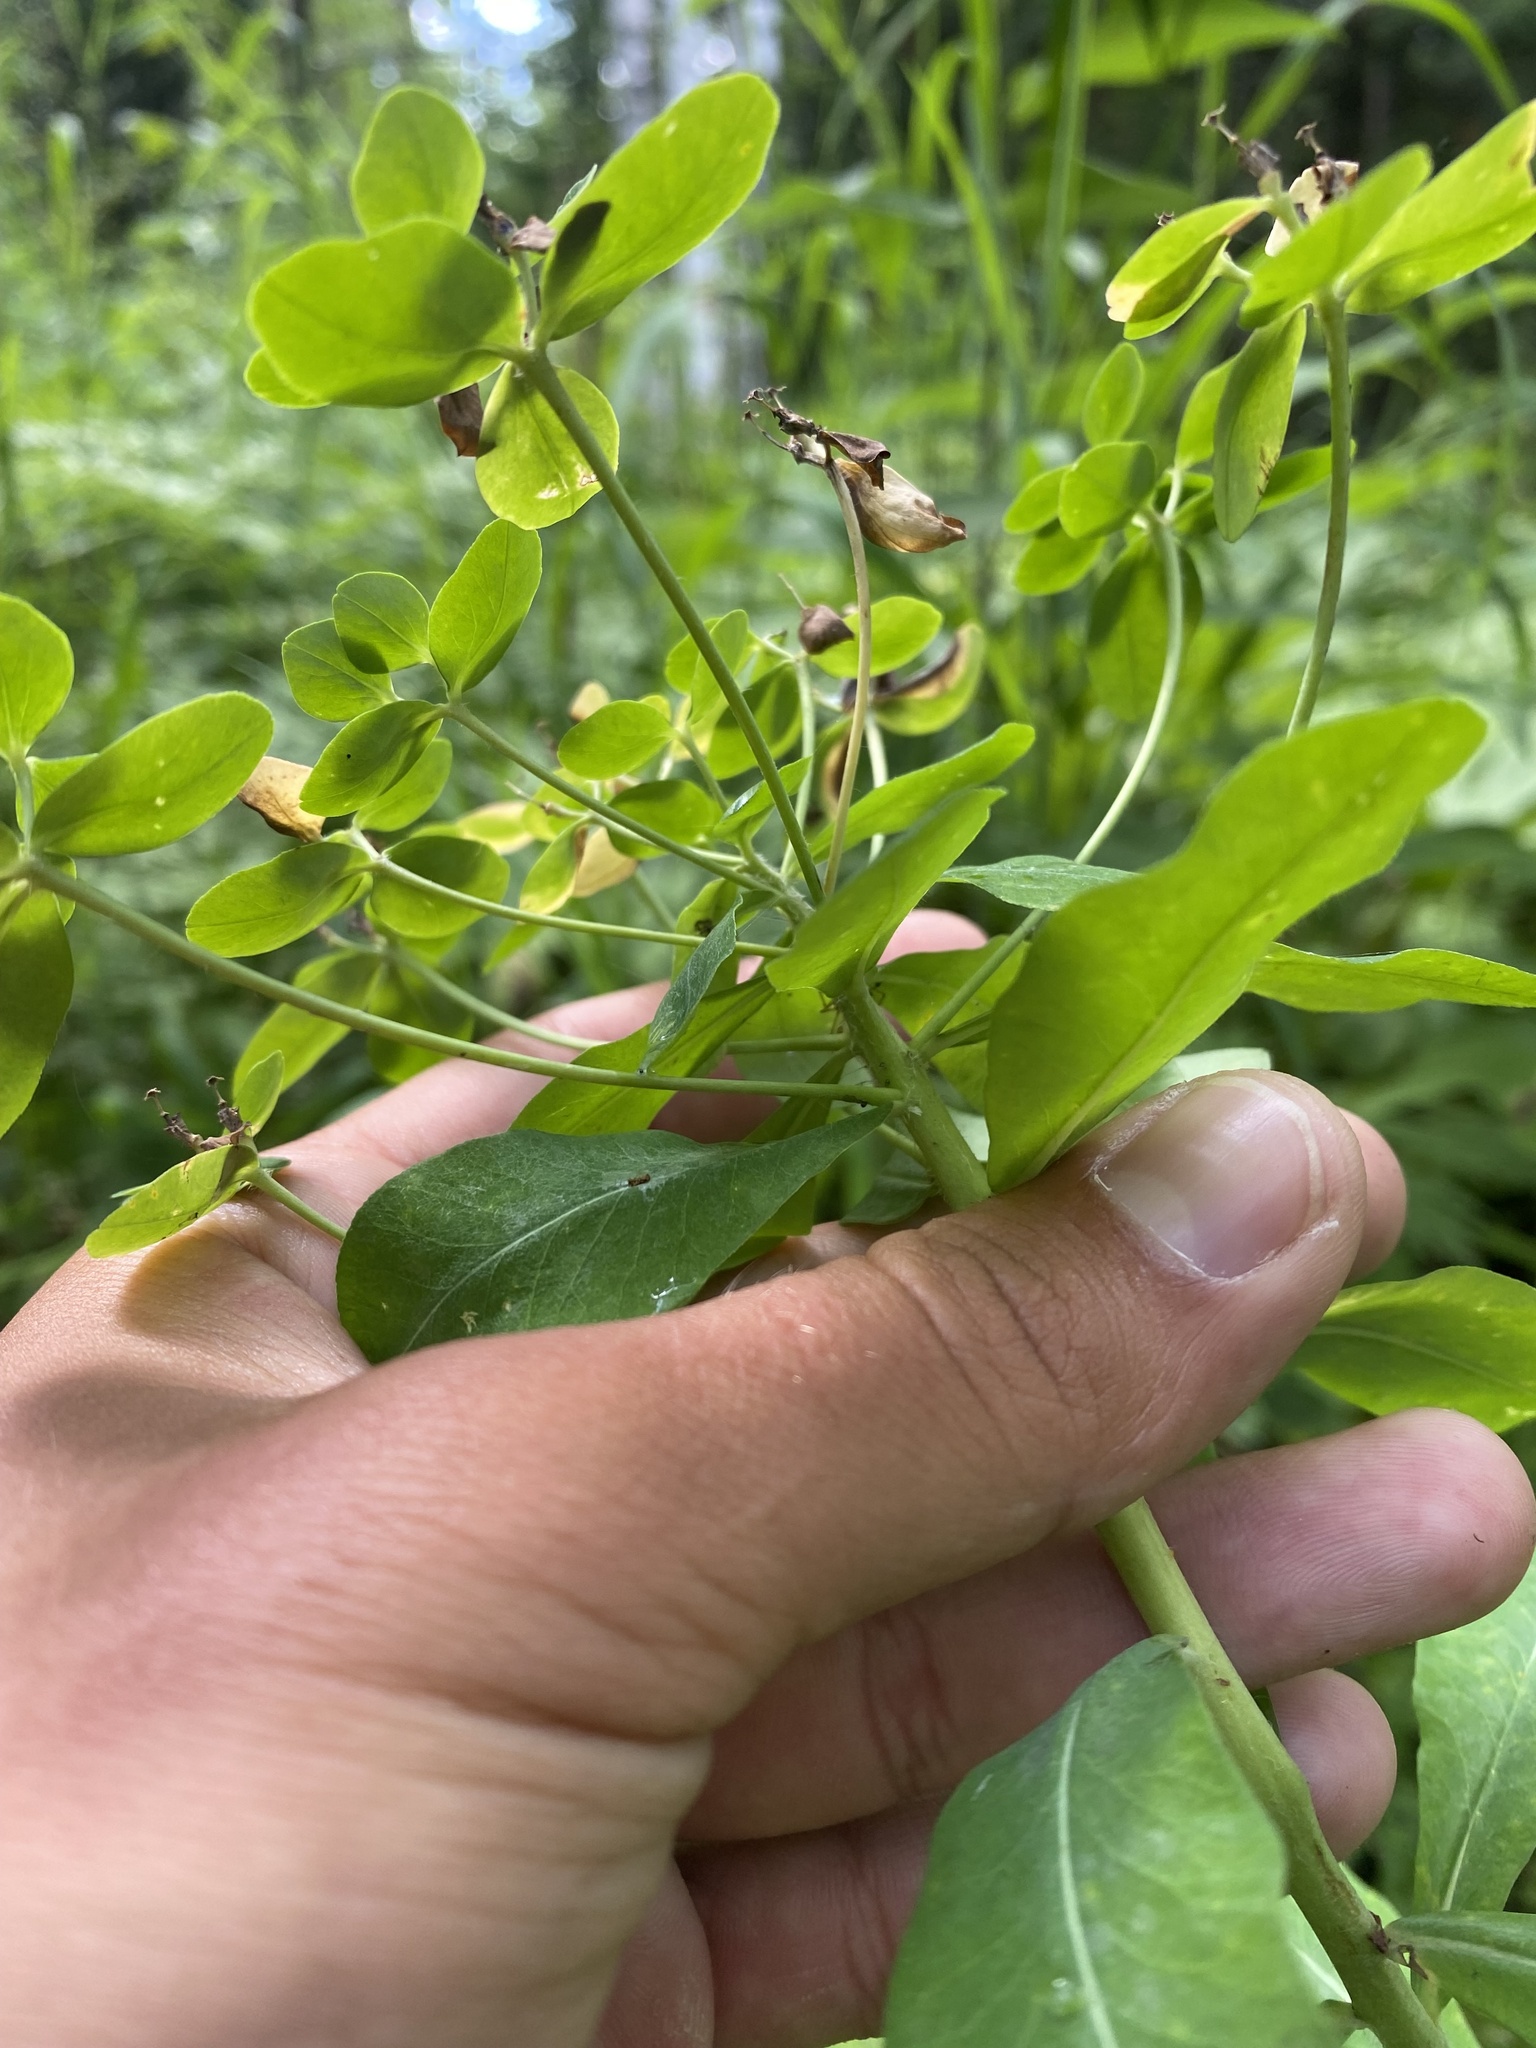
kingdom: Plantae
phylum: Tracheophyta
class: Magnoliopsida
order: Malpighiales
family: Euphorbiaceae
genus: Euphorbia
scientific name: Euphorbia pilosa
